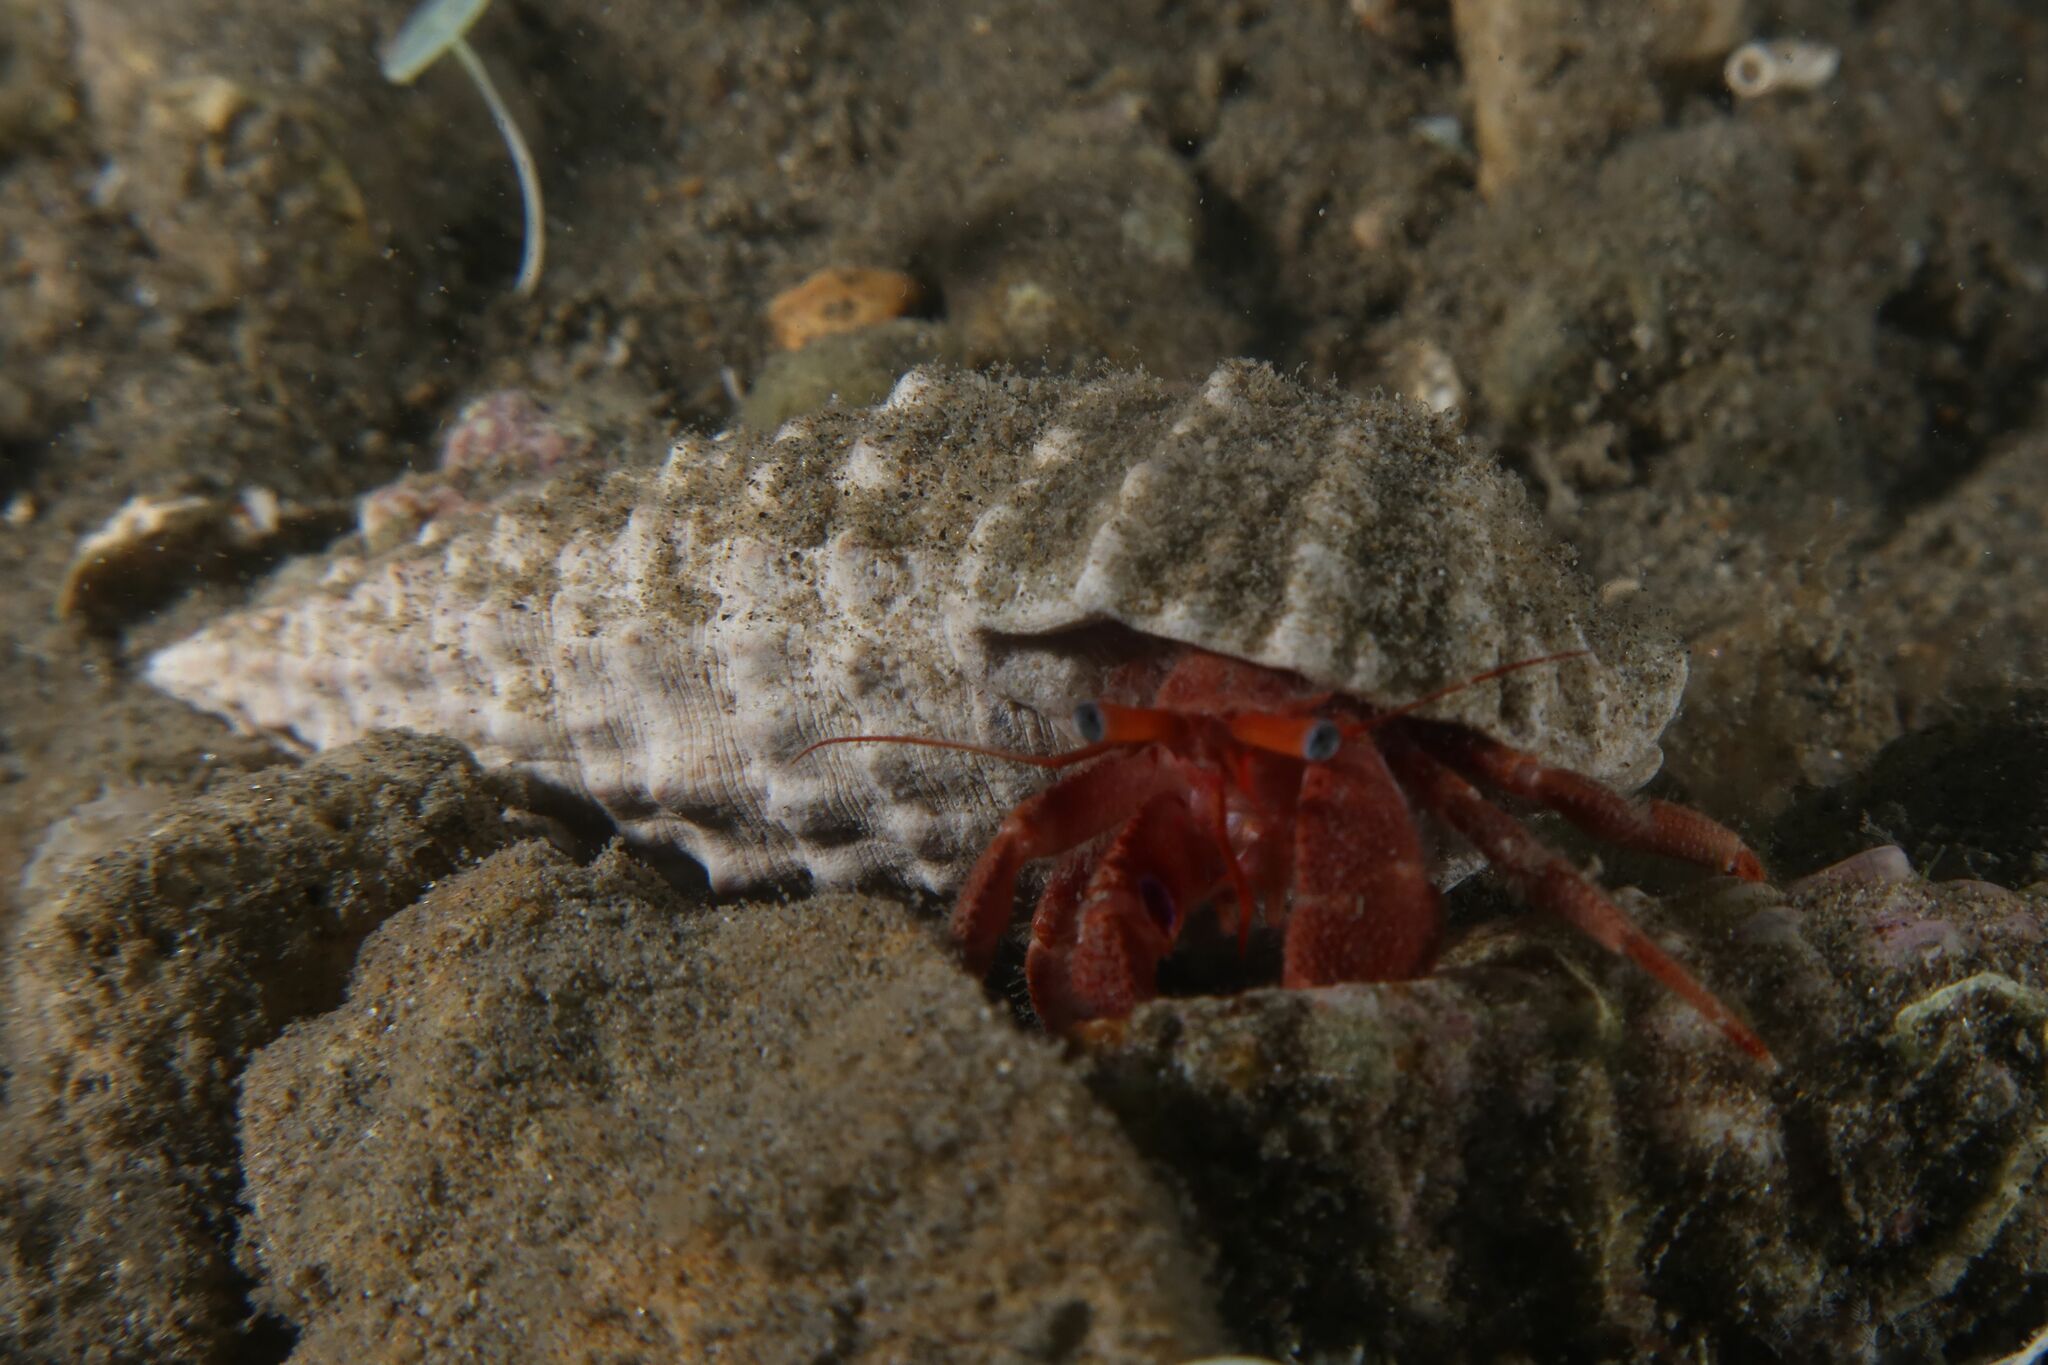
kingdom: Animalia
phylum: Arthropoda
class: Malacostraca
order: Decapoda
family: Diogenidae
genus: Paguristes
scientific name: Paguristes eremita
